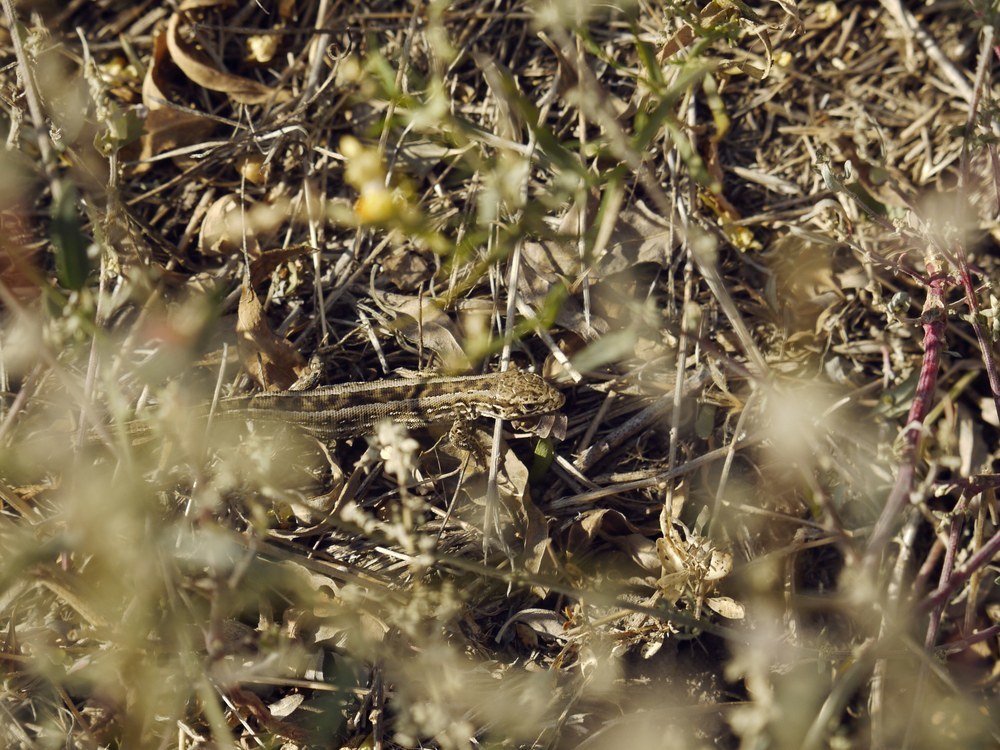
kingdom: Animalia
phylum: Chordata
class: Squamata
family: Lacertidae
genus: Lacerta
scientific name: Lacerta agilis
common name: Sand lizard
